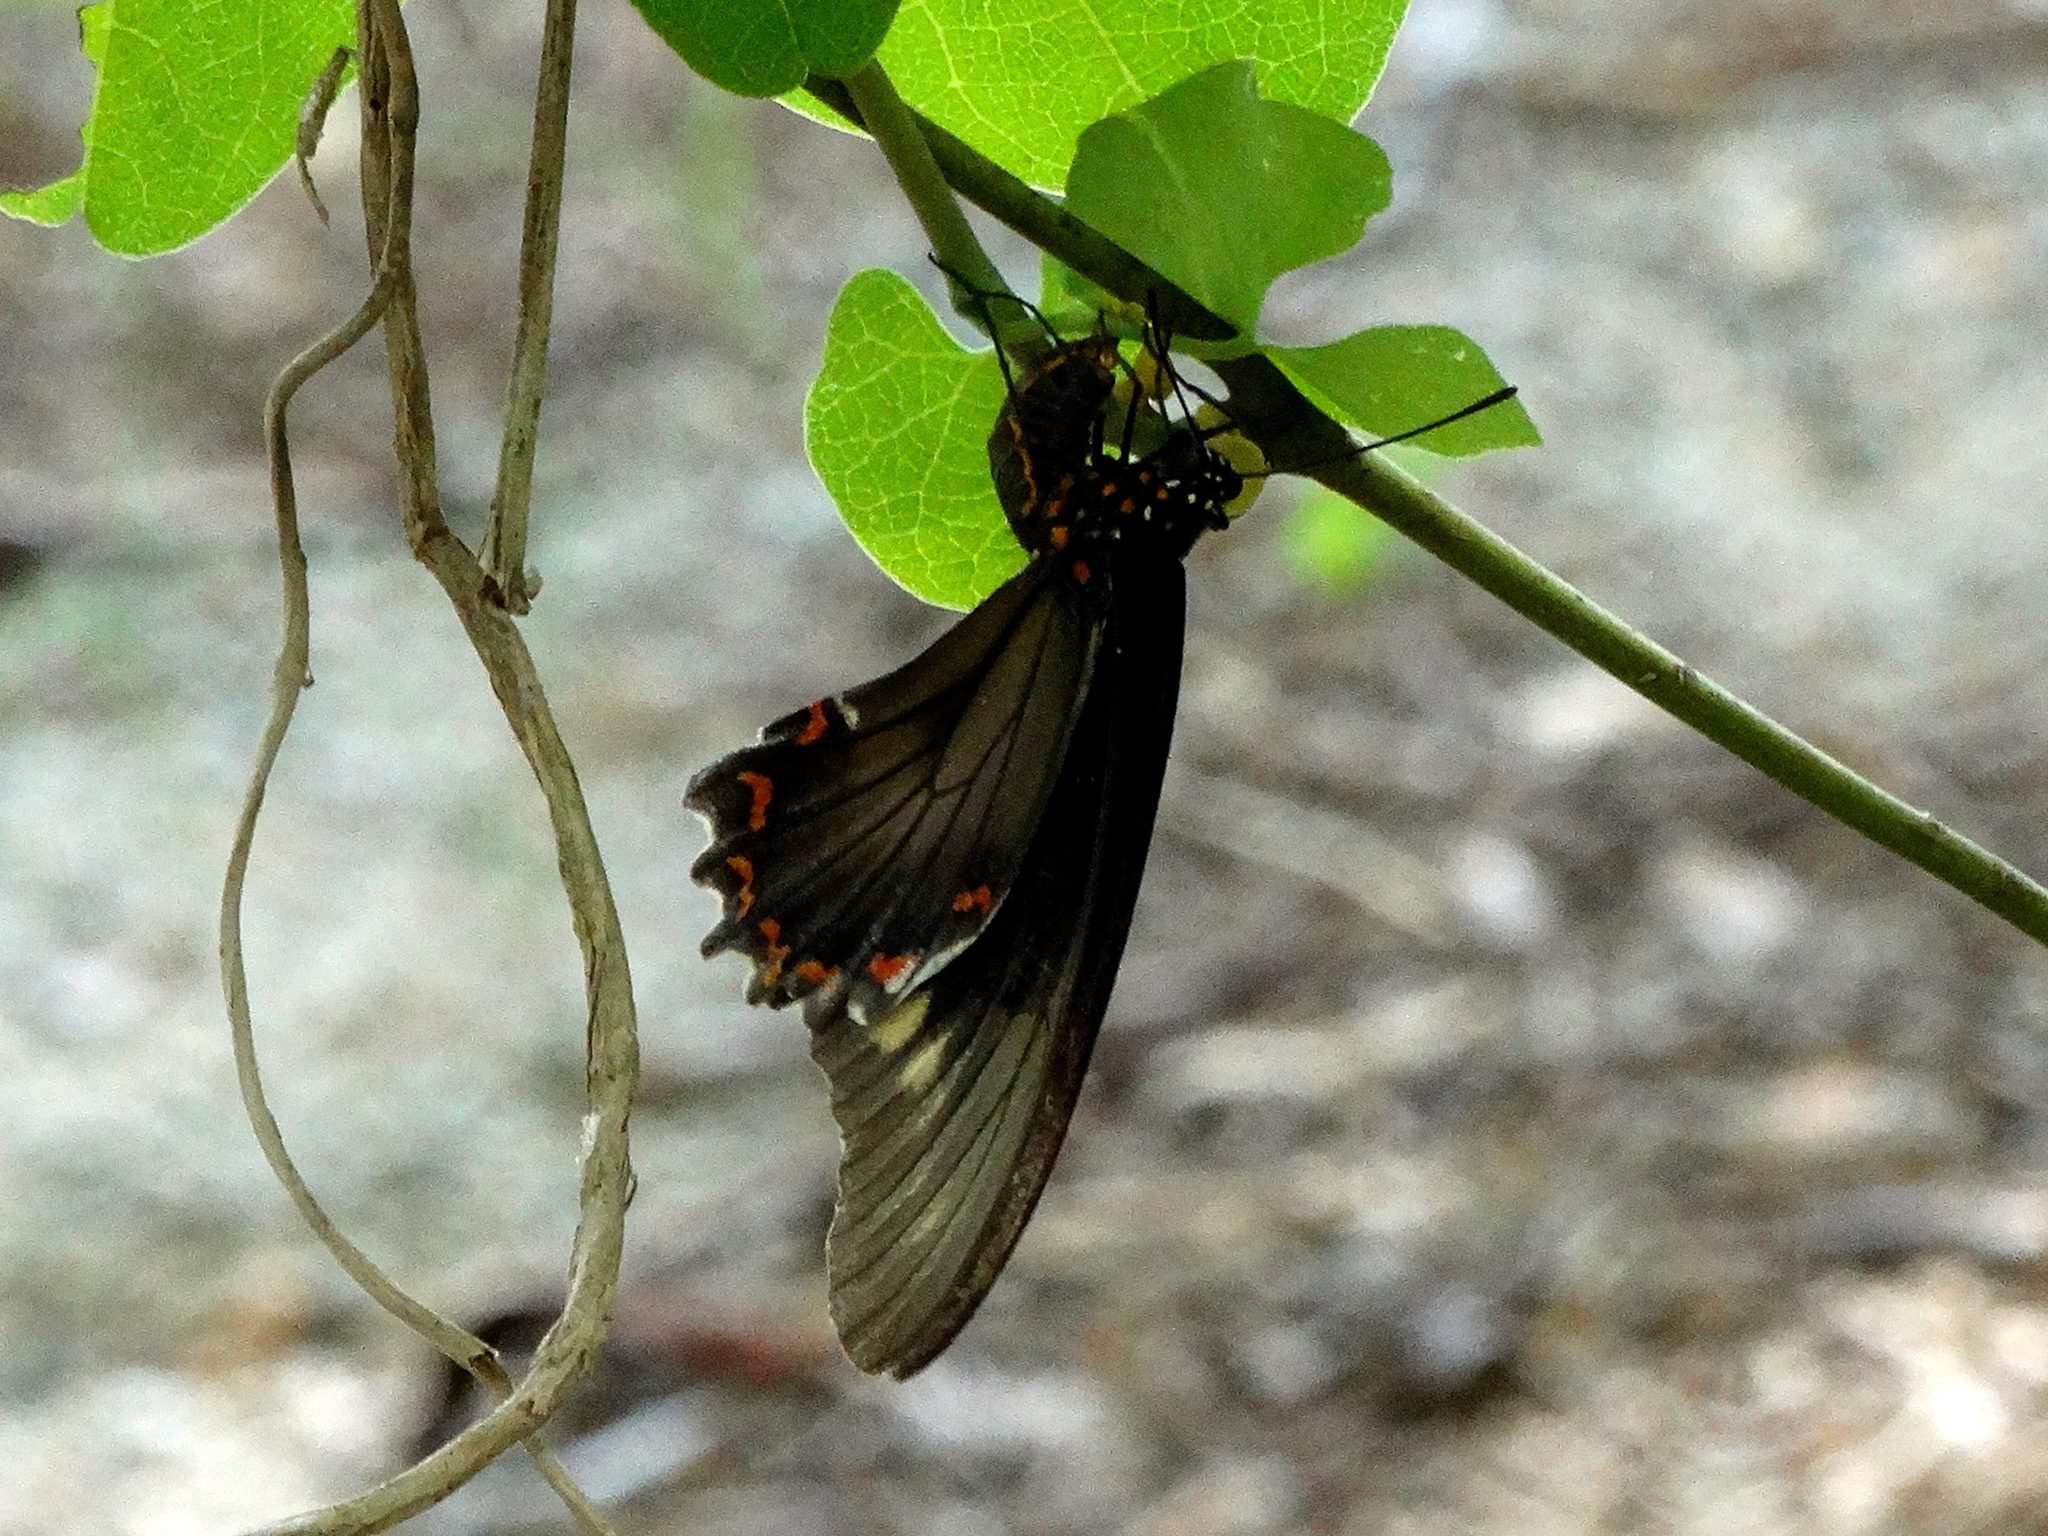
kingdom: Animalia
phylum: Arthropoda
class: Insecta
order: Lepidoptera
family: Papilionidae
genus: Battus
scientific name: Battus polydamas
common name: Polydamas swallowtail
